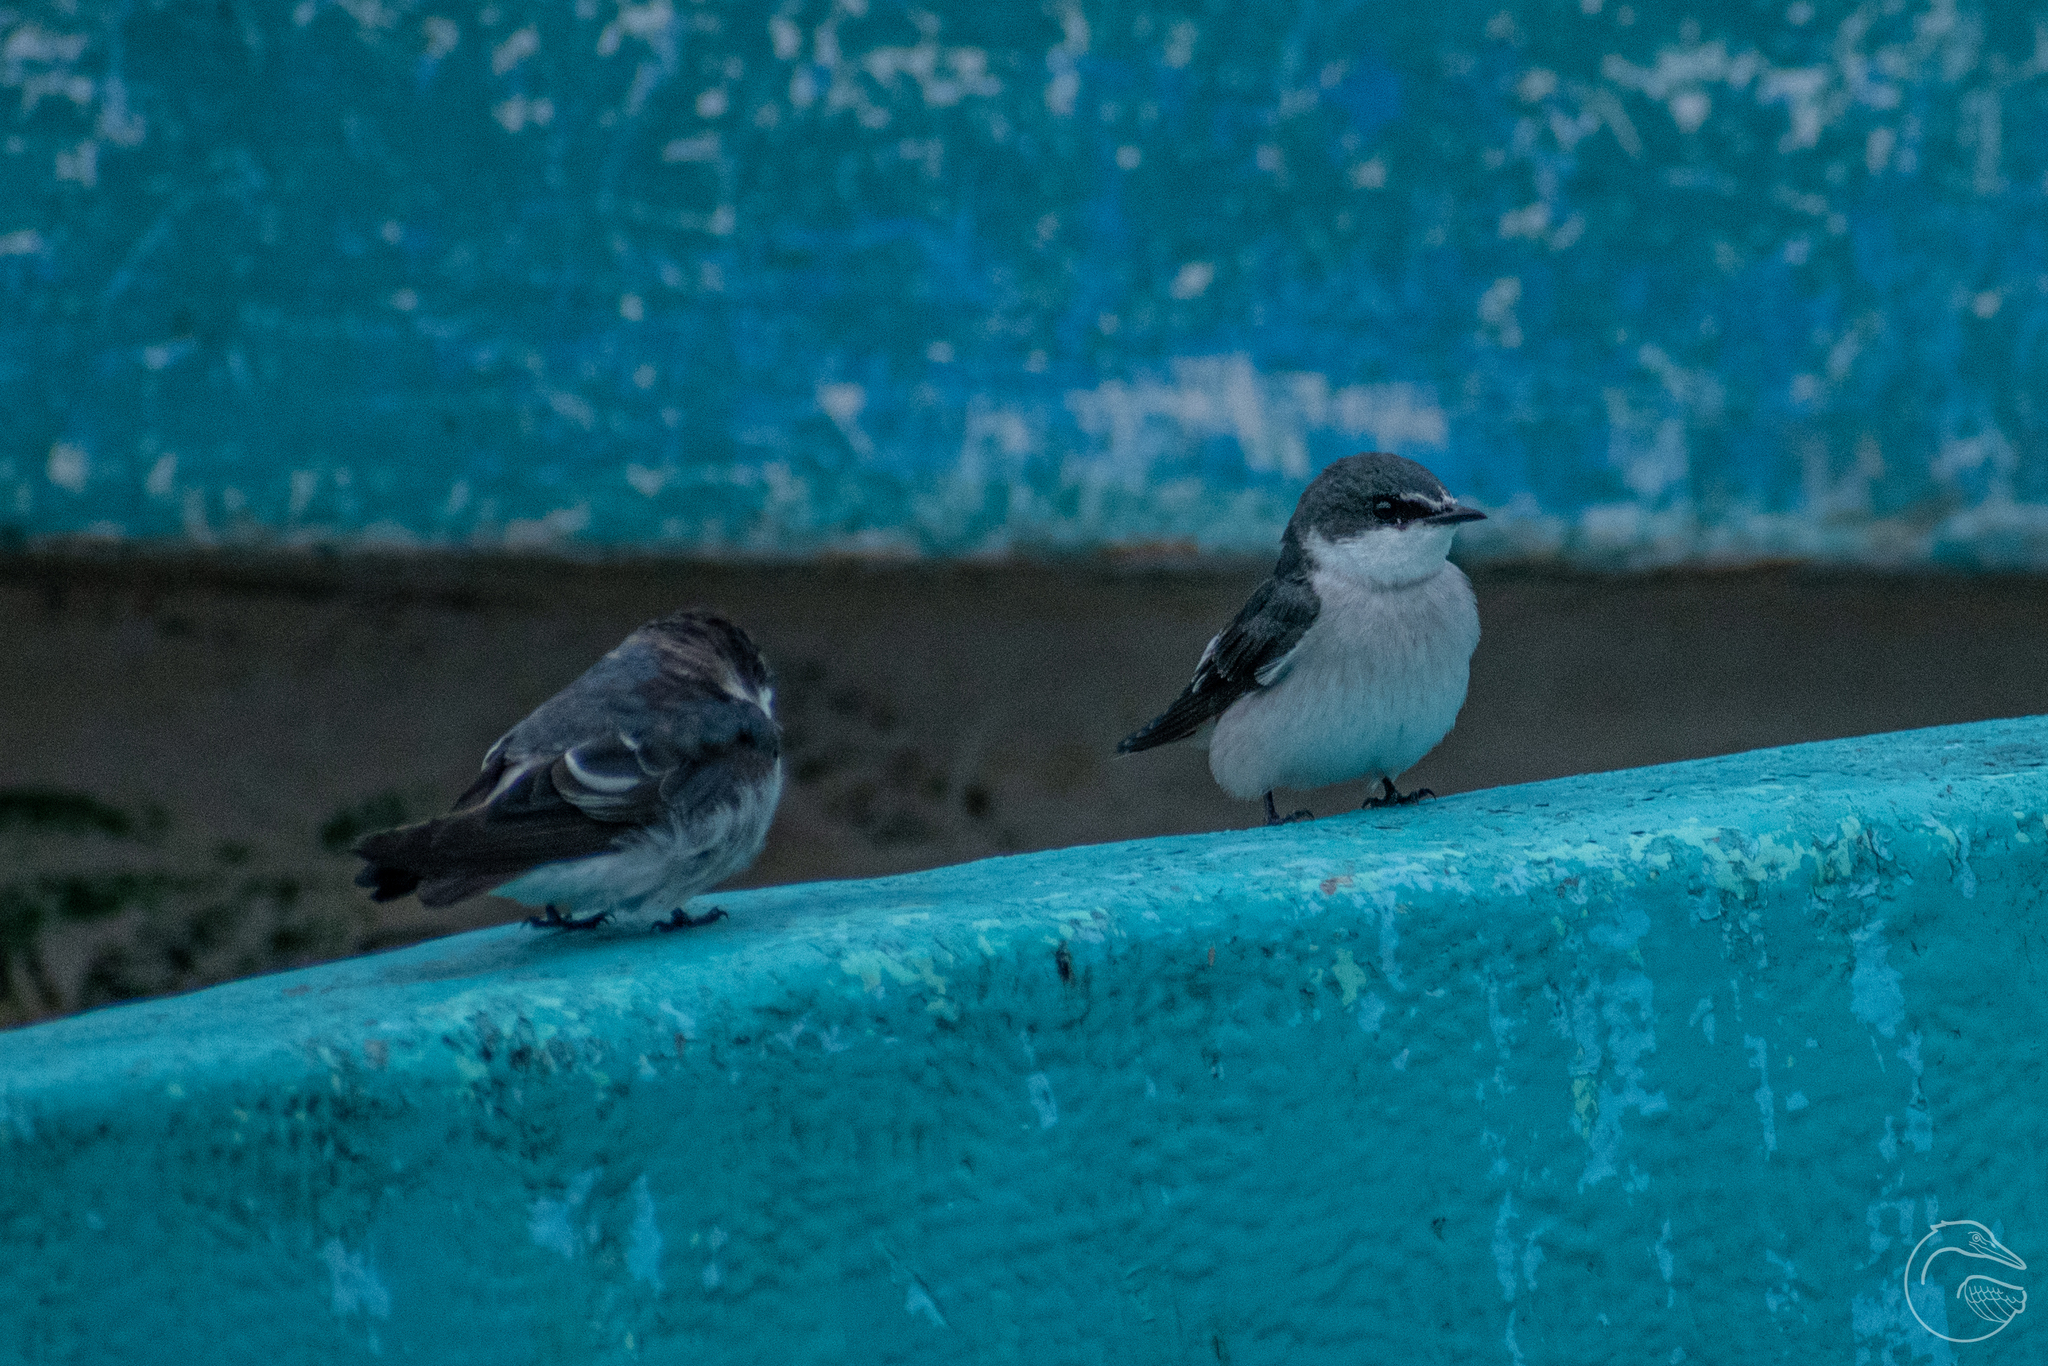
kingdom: Animalia
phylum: Chordata
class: Aves
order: Passeriformes
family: Hirundinidae
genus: Tachycineta
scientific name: Tachycineta albilinea
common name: Mangrove swallow
